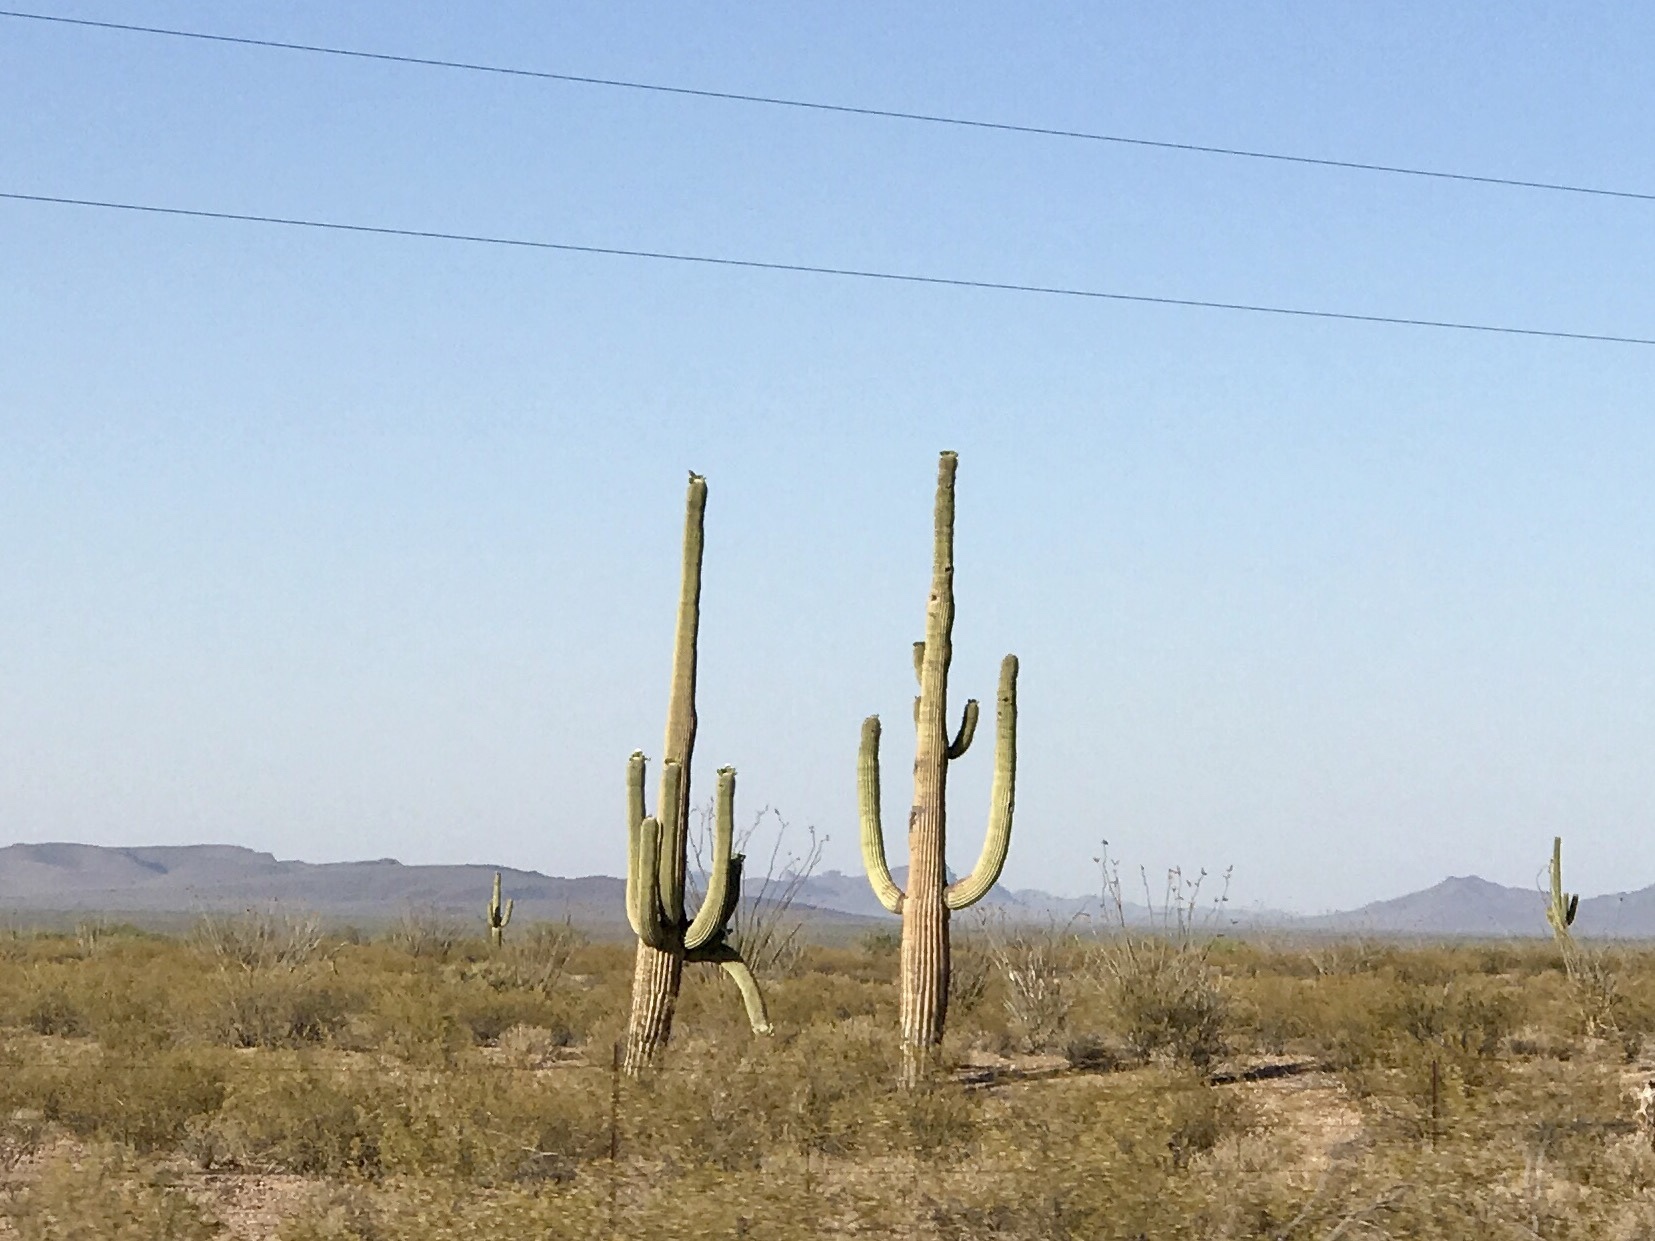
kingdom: Plantae
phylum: Tracheophyta
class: Magnoliopsida
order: Caryophyllales
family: Cactaceae
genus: Carnegiea
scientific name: Carnegiea gigantea
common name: Saguaro
